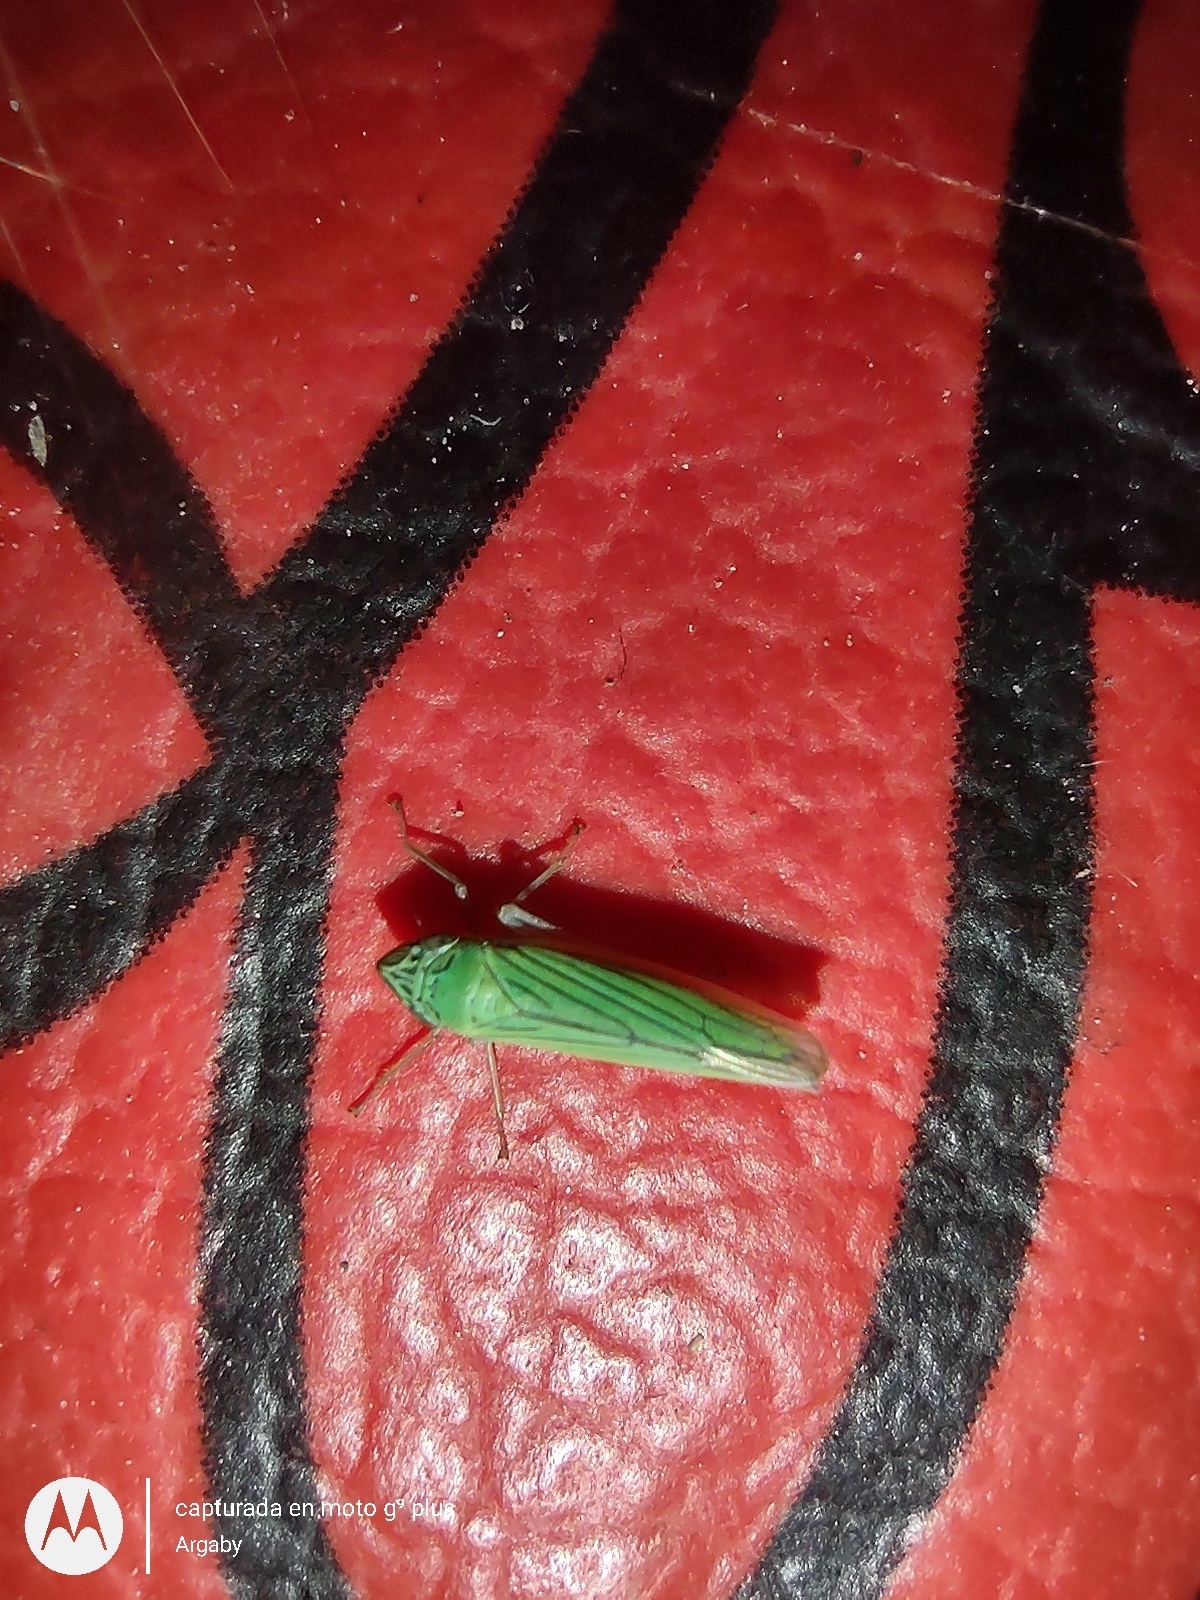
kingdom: Animalia
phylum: Arthropoda
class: Insecta
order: Hemiptera
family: Cicadellidae
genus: Syncharina
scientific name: Syncharina argentina
